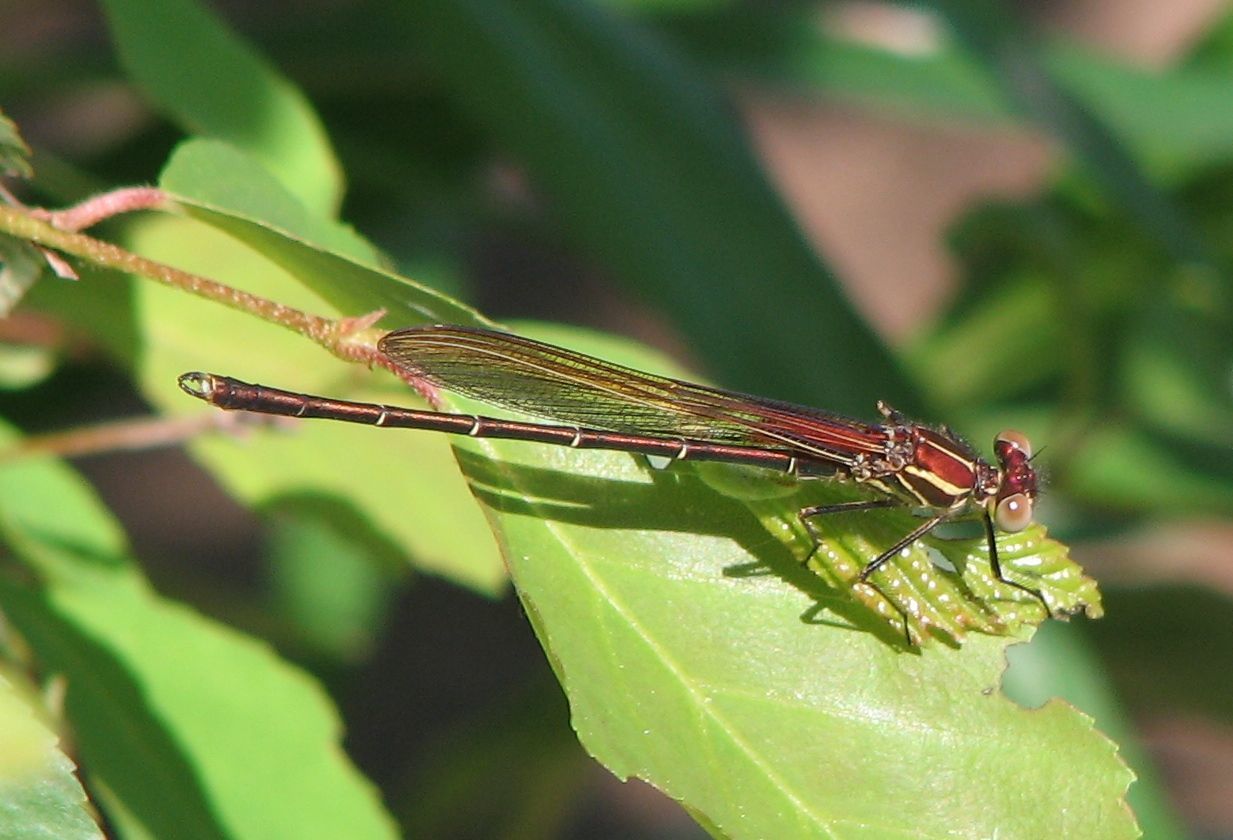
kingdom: Animalia
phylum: Arthropoda
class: Insecta
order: Odonata
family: Calopterygidae
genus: Hetaerina
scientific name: Hetaerina americana
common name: American rubyspot
